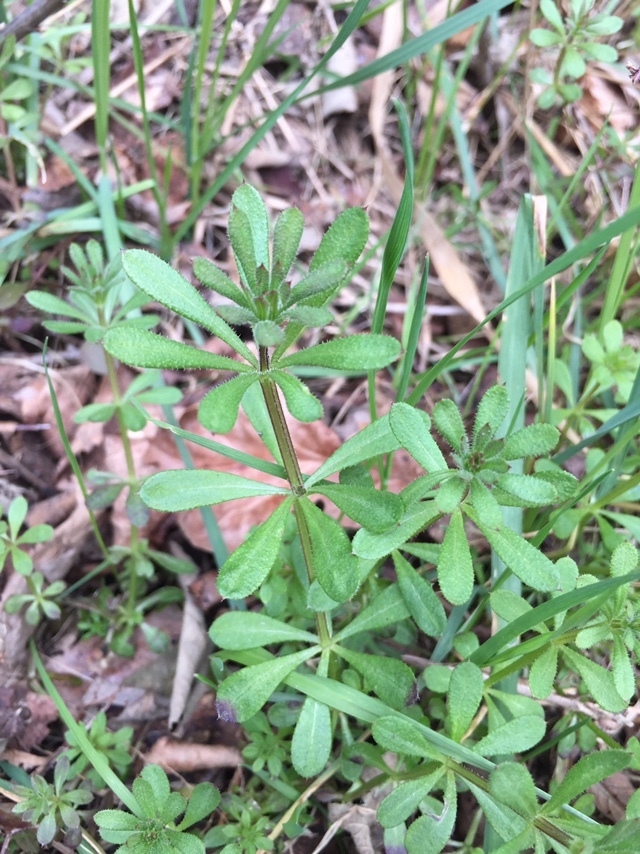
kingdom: Plantae
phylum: Tracheophyta
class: Magnoliopsida
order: Gentianales
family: Rubiaceae
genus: Galium
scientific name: Galium aparine
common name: Cleavers
